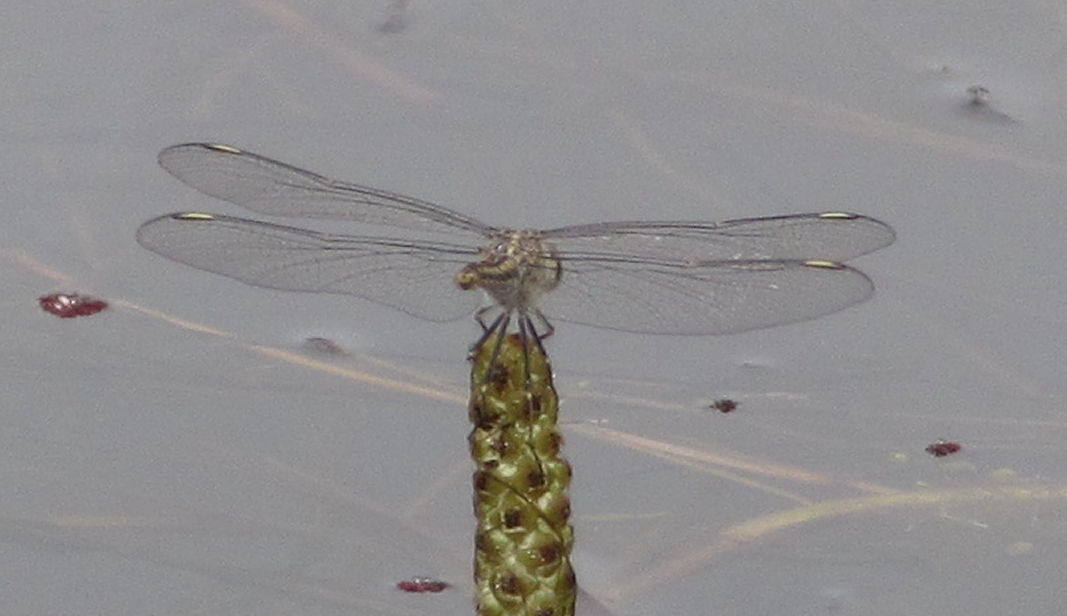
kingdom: Animalia
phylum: Arthropoda
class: Insecta
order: Odonata
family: Libellulidae
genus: Brachythemis
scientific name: Brachythemis leucosticta
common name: Banded groundling
